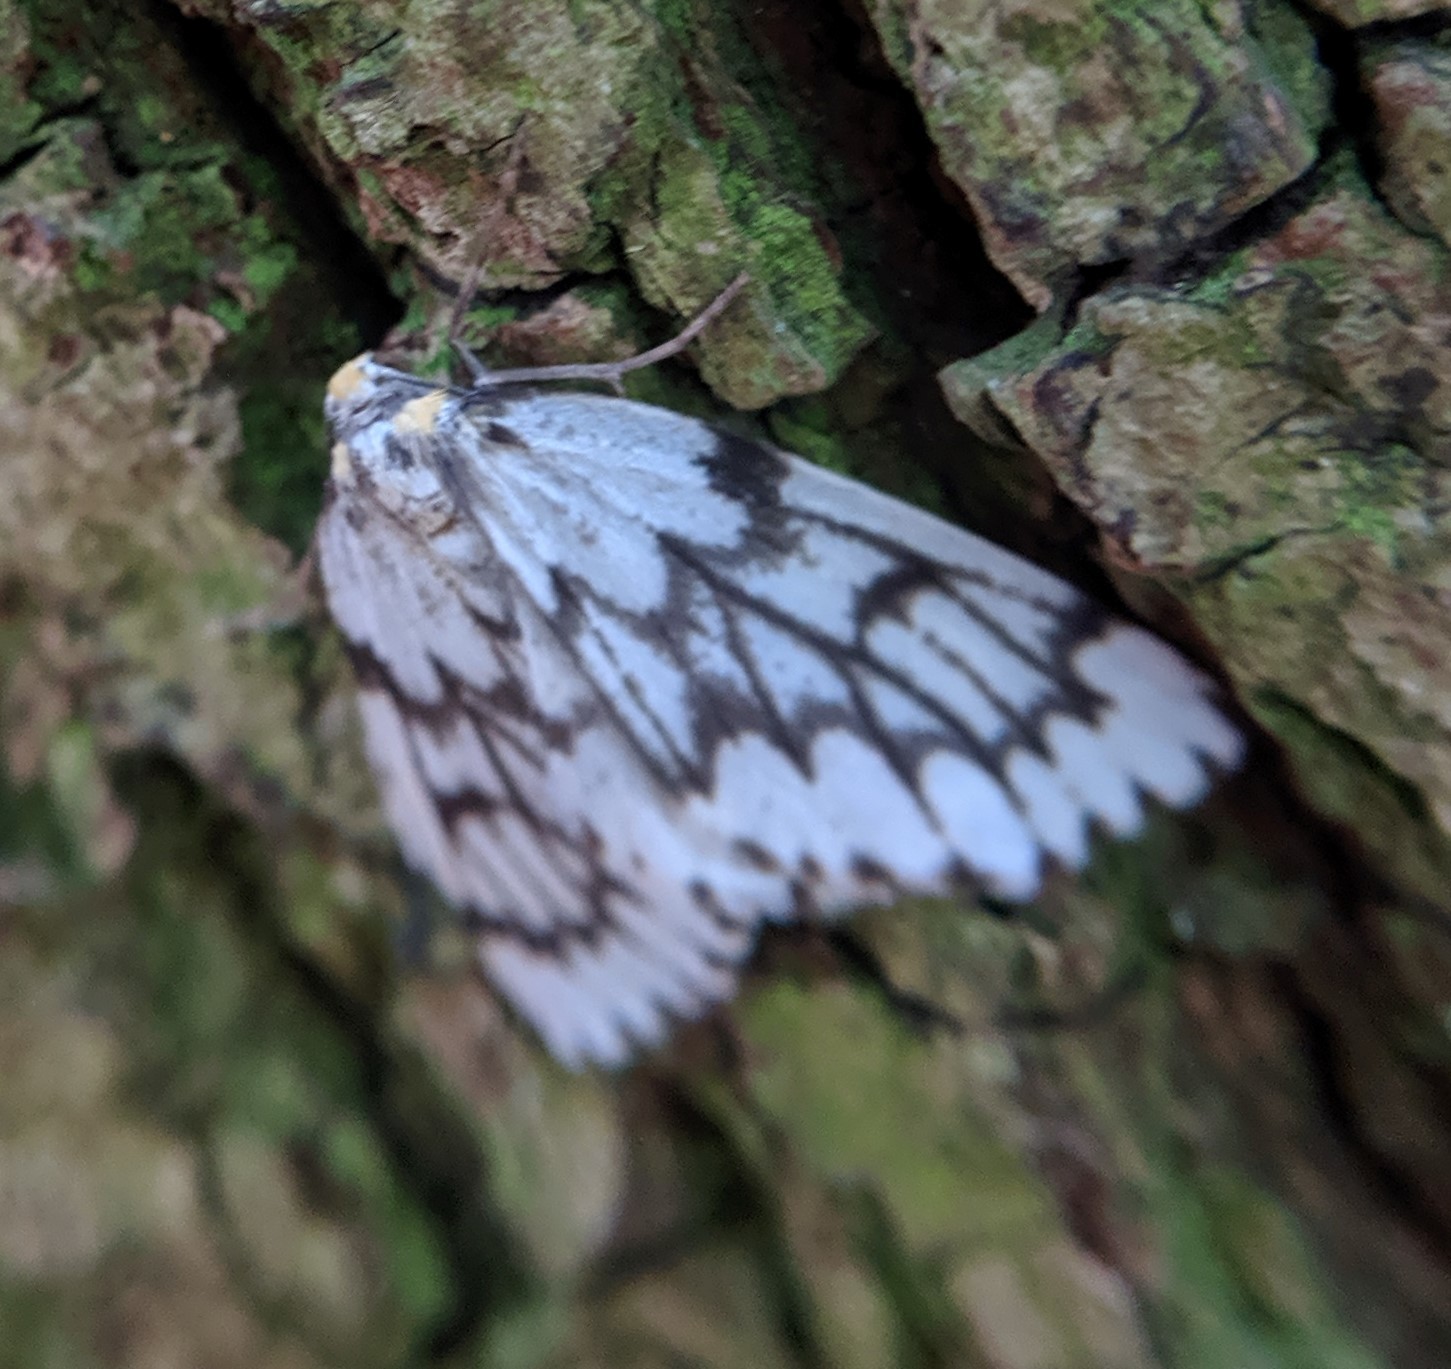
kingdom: Animalia
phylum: Arthropoda
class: Insecta
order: Lepidoptera
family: Geometridae
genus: Nepytia
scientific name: Nepytia phantasmaria
